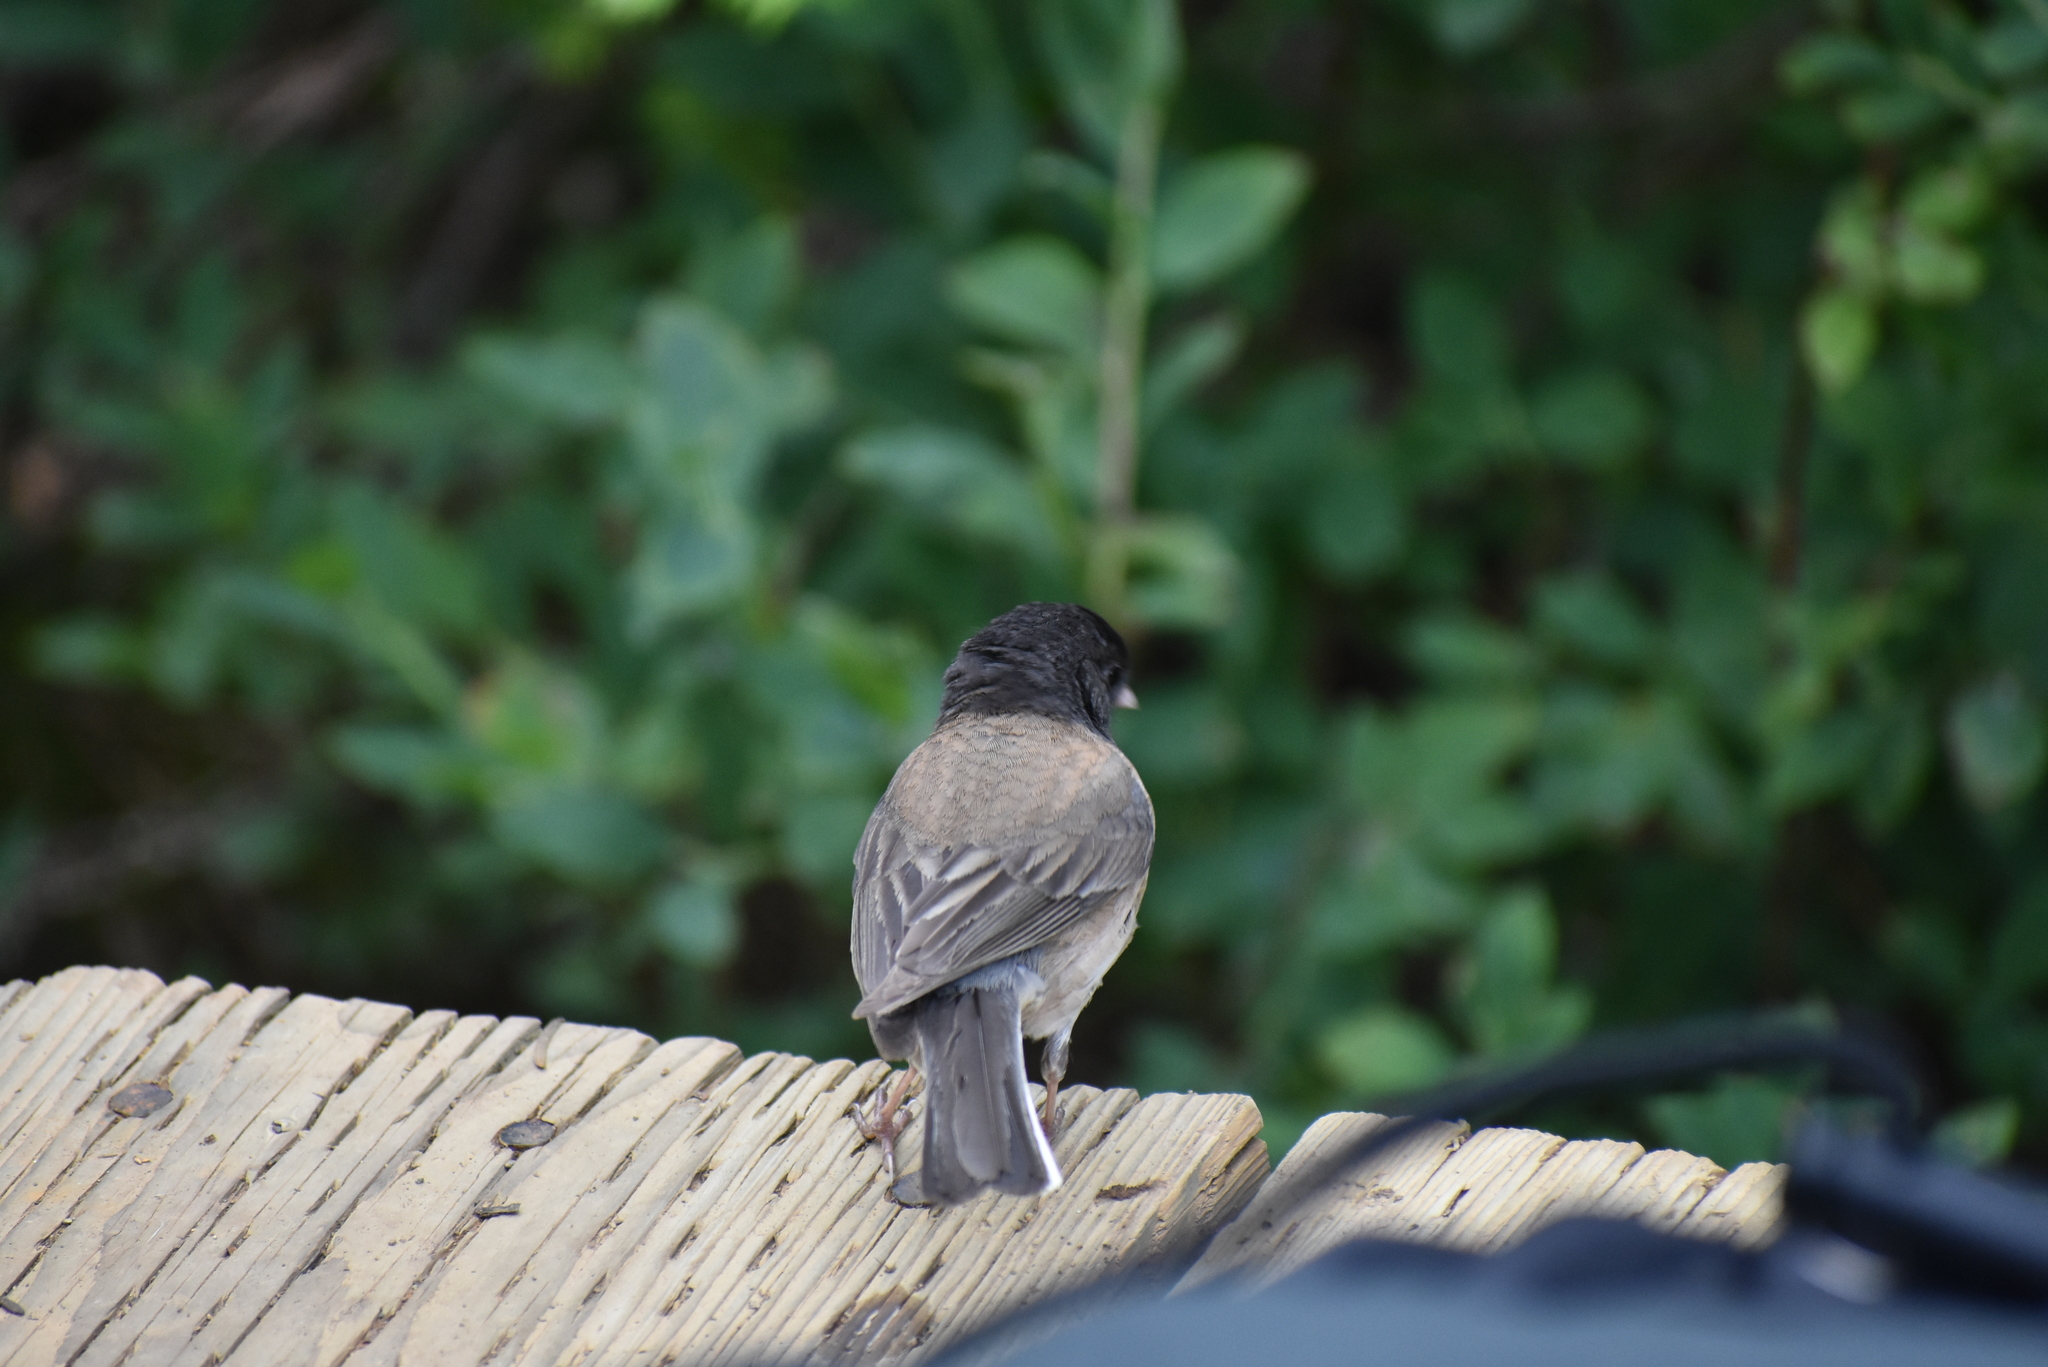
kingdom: Animalia
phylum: Chordata
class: Aves
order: Passeriformes
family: Passerellidae
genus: Junco
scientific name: Junco hyemalis
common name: Dark-eyed junco
